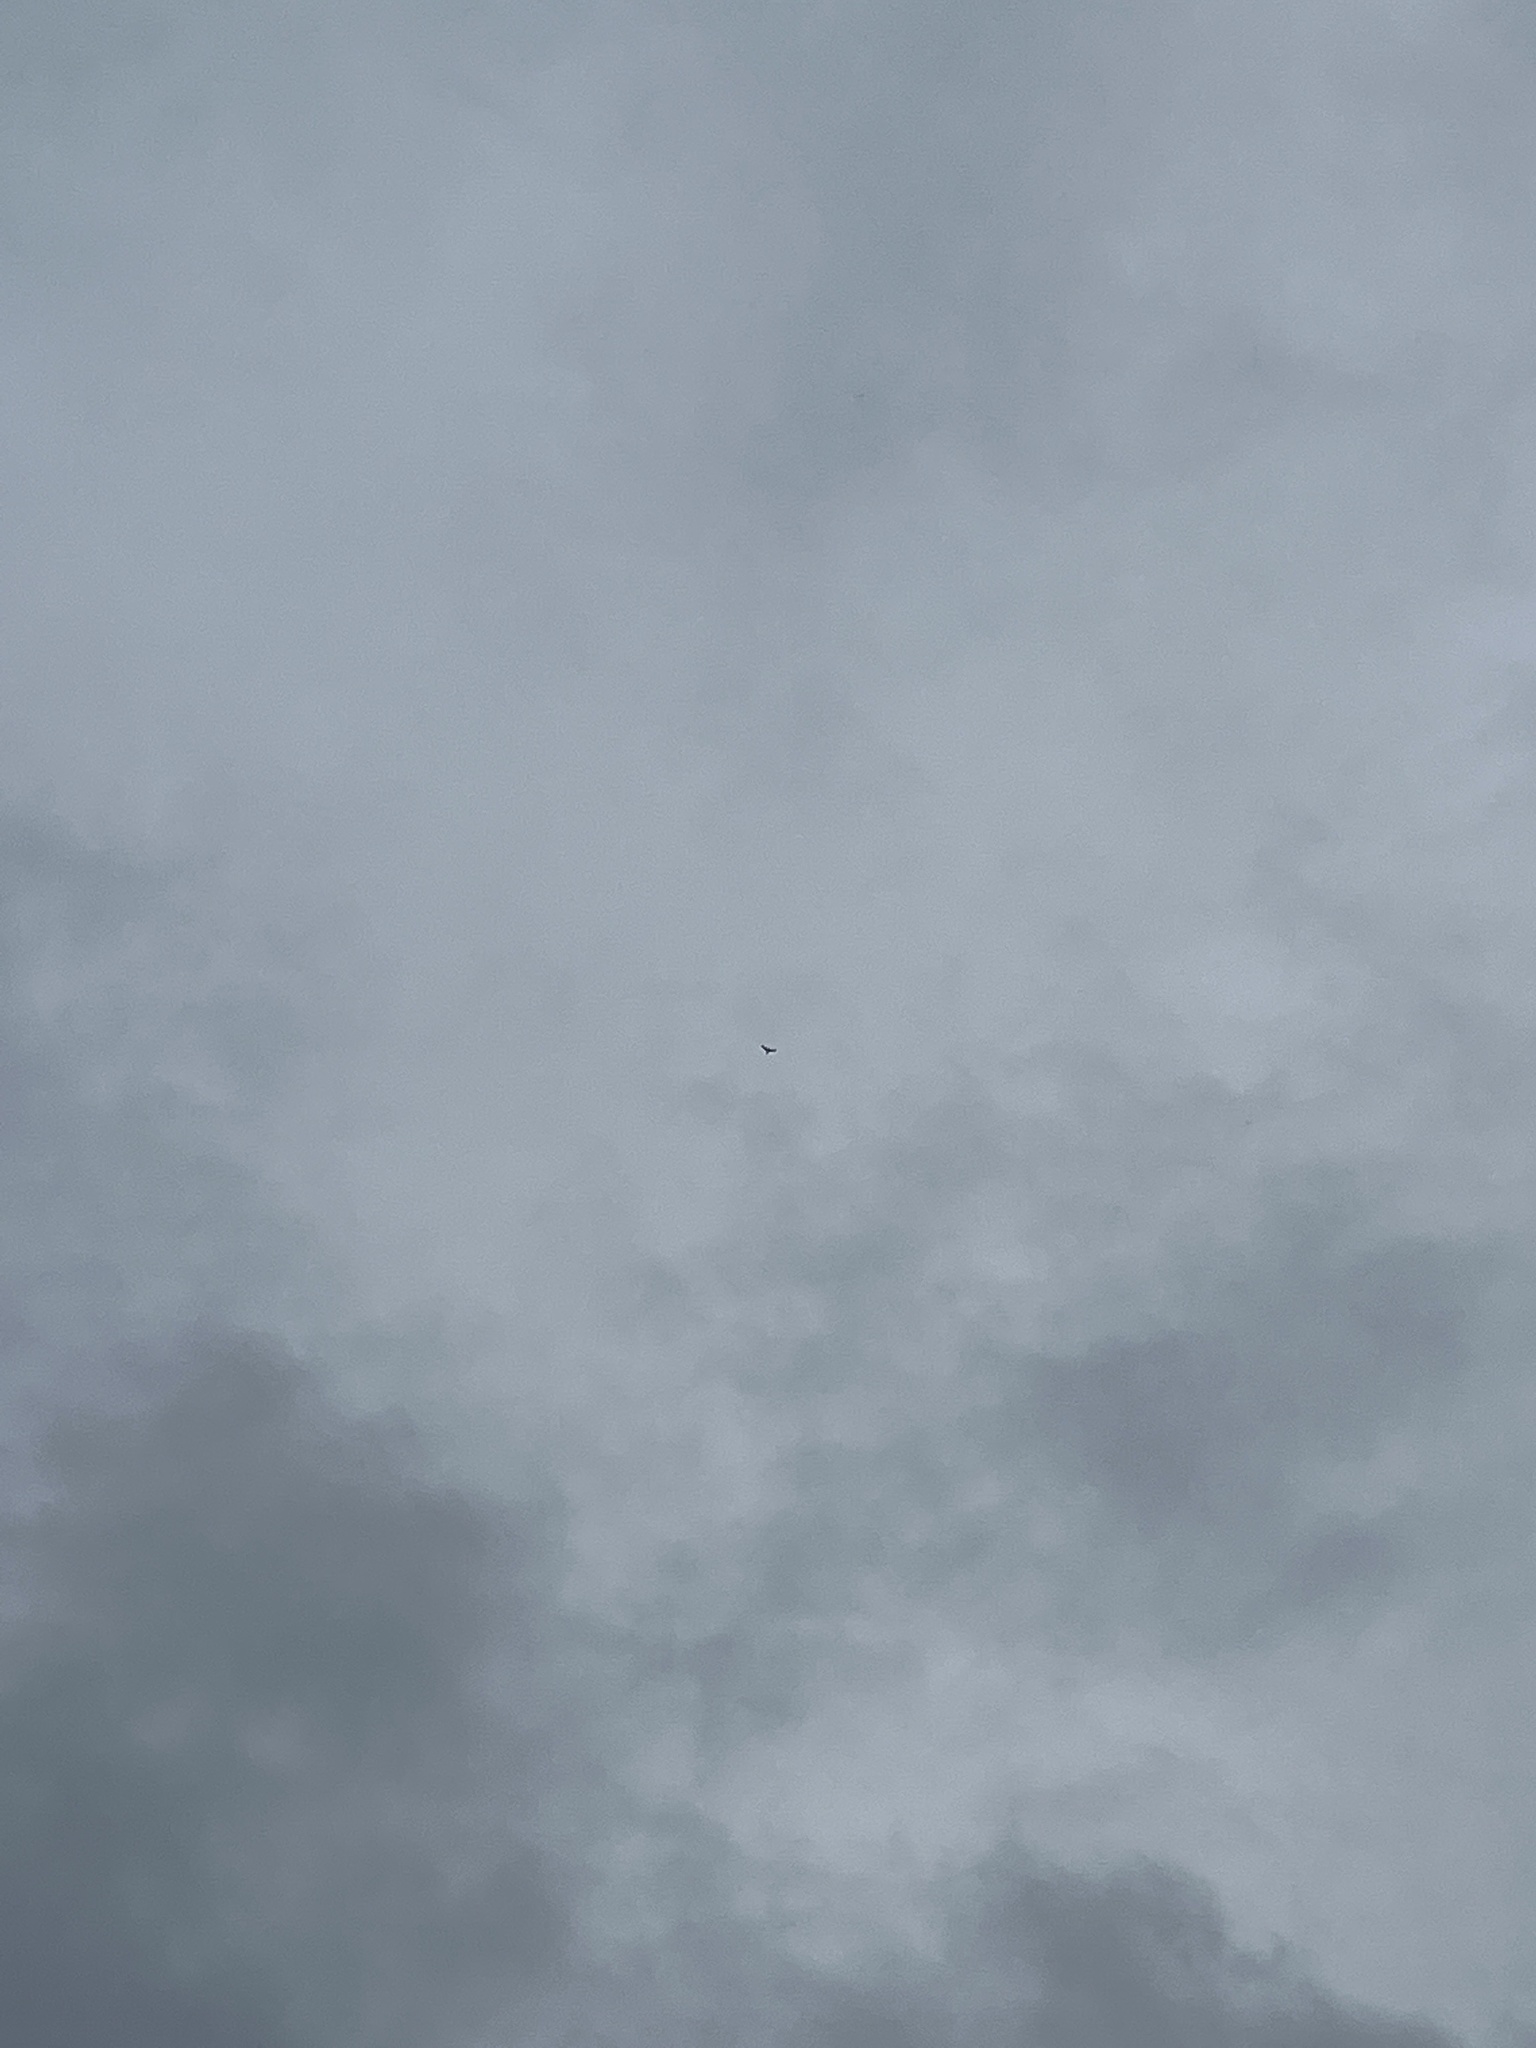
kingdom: Animalia
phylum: Chordata
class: Aves
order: Charadriiformes
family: Scolopacidae
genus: Numenius
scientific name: Numenius phaeopus
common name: Whimbrel
